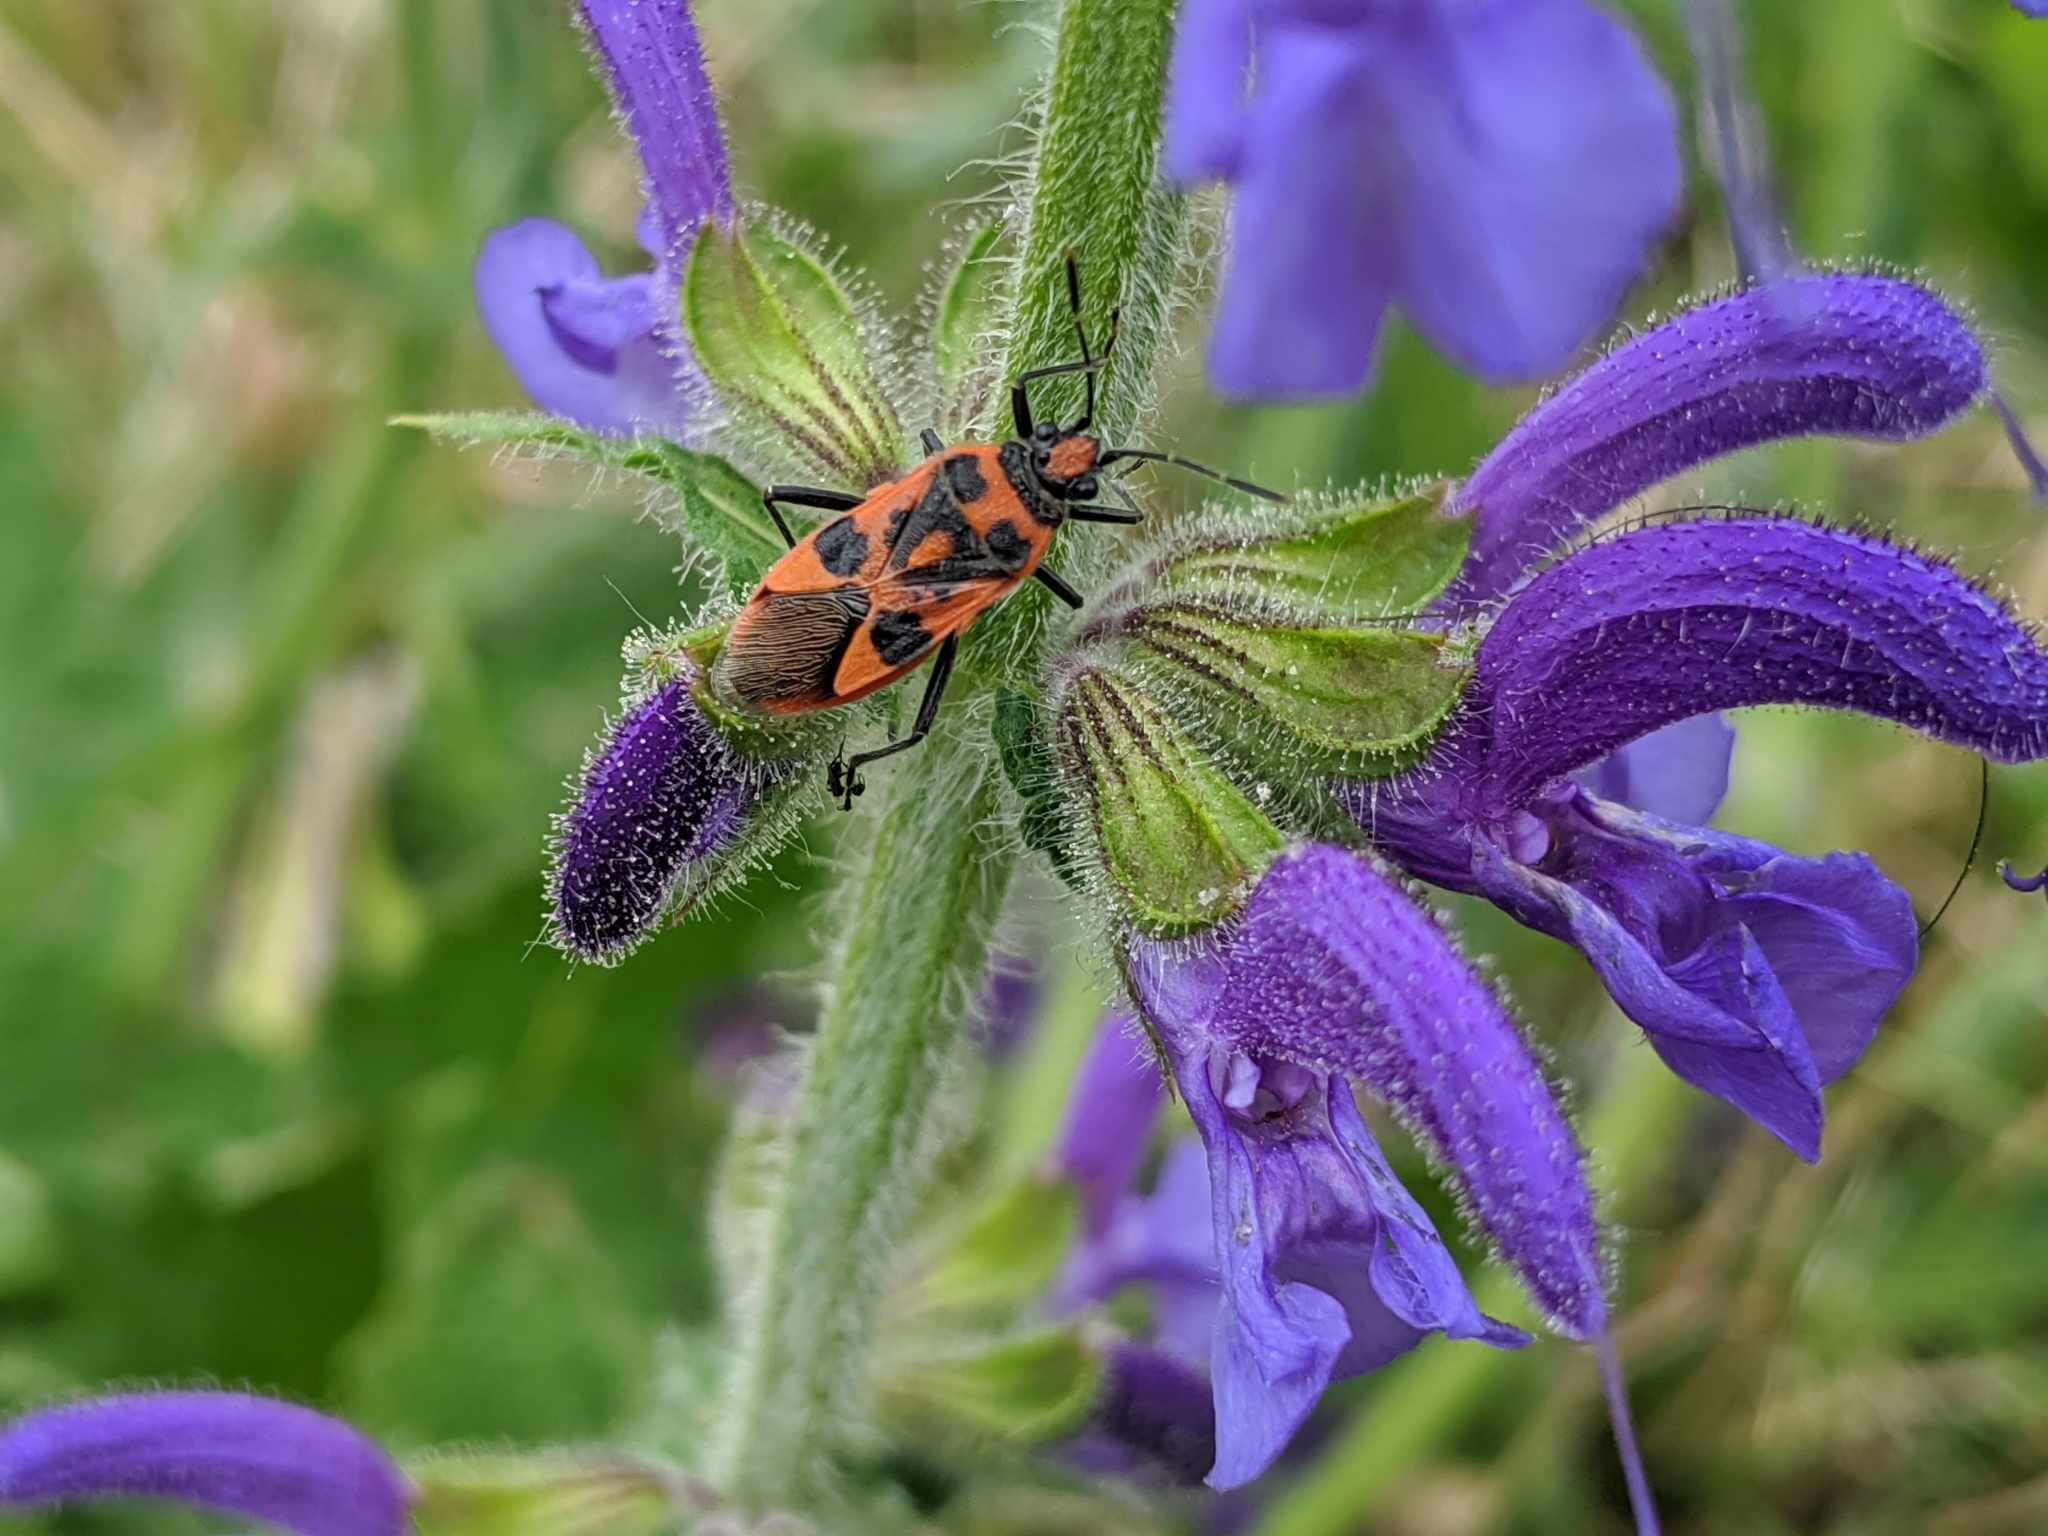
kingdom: Plantae
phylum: Tracheophyta
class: Magnoliopsida
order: Lamiales
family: Lamiaceae
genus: Salvia
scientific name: Salvia pratensis
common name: Meadow sage
